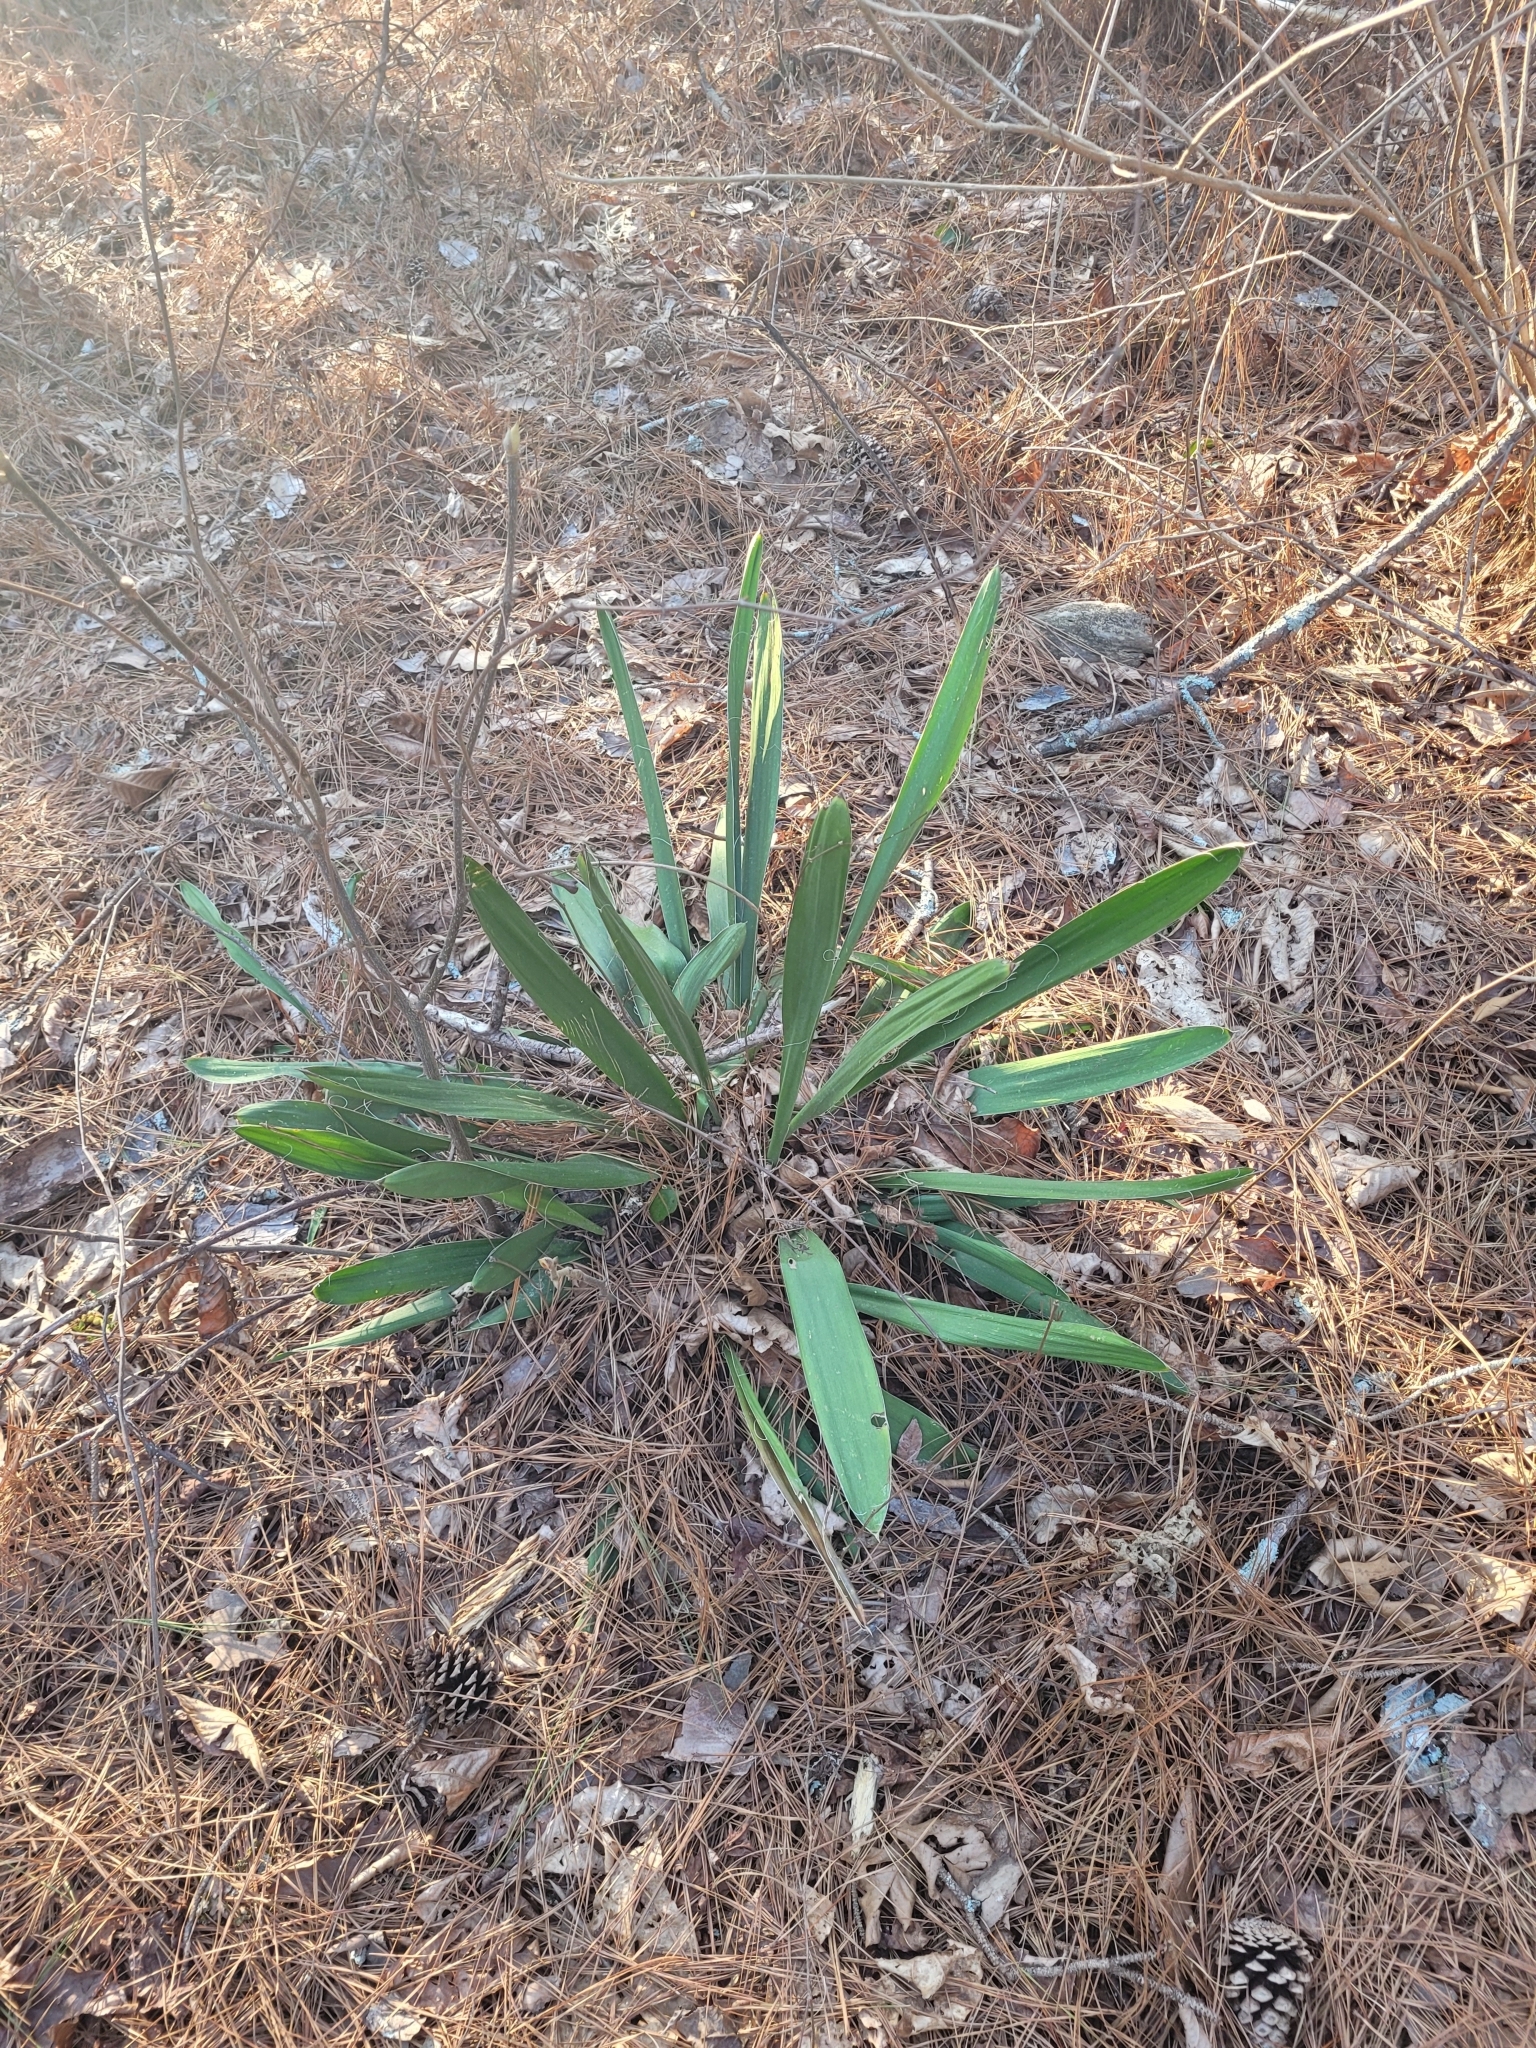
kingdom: Plantae
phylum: Tracheophyta
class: Liliopsida
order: Asparagales
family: Asparagaceae
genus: Yucca
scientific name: Yucca filamentosa
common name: Adam's-needle
